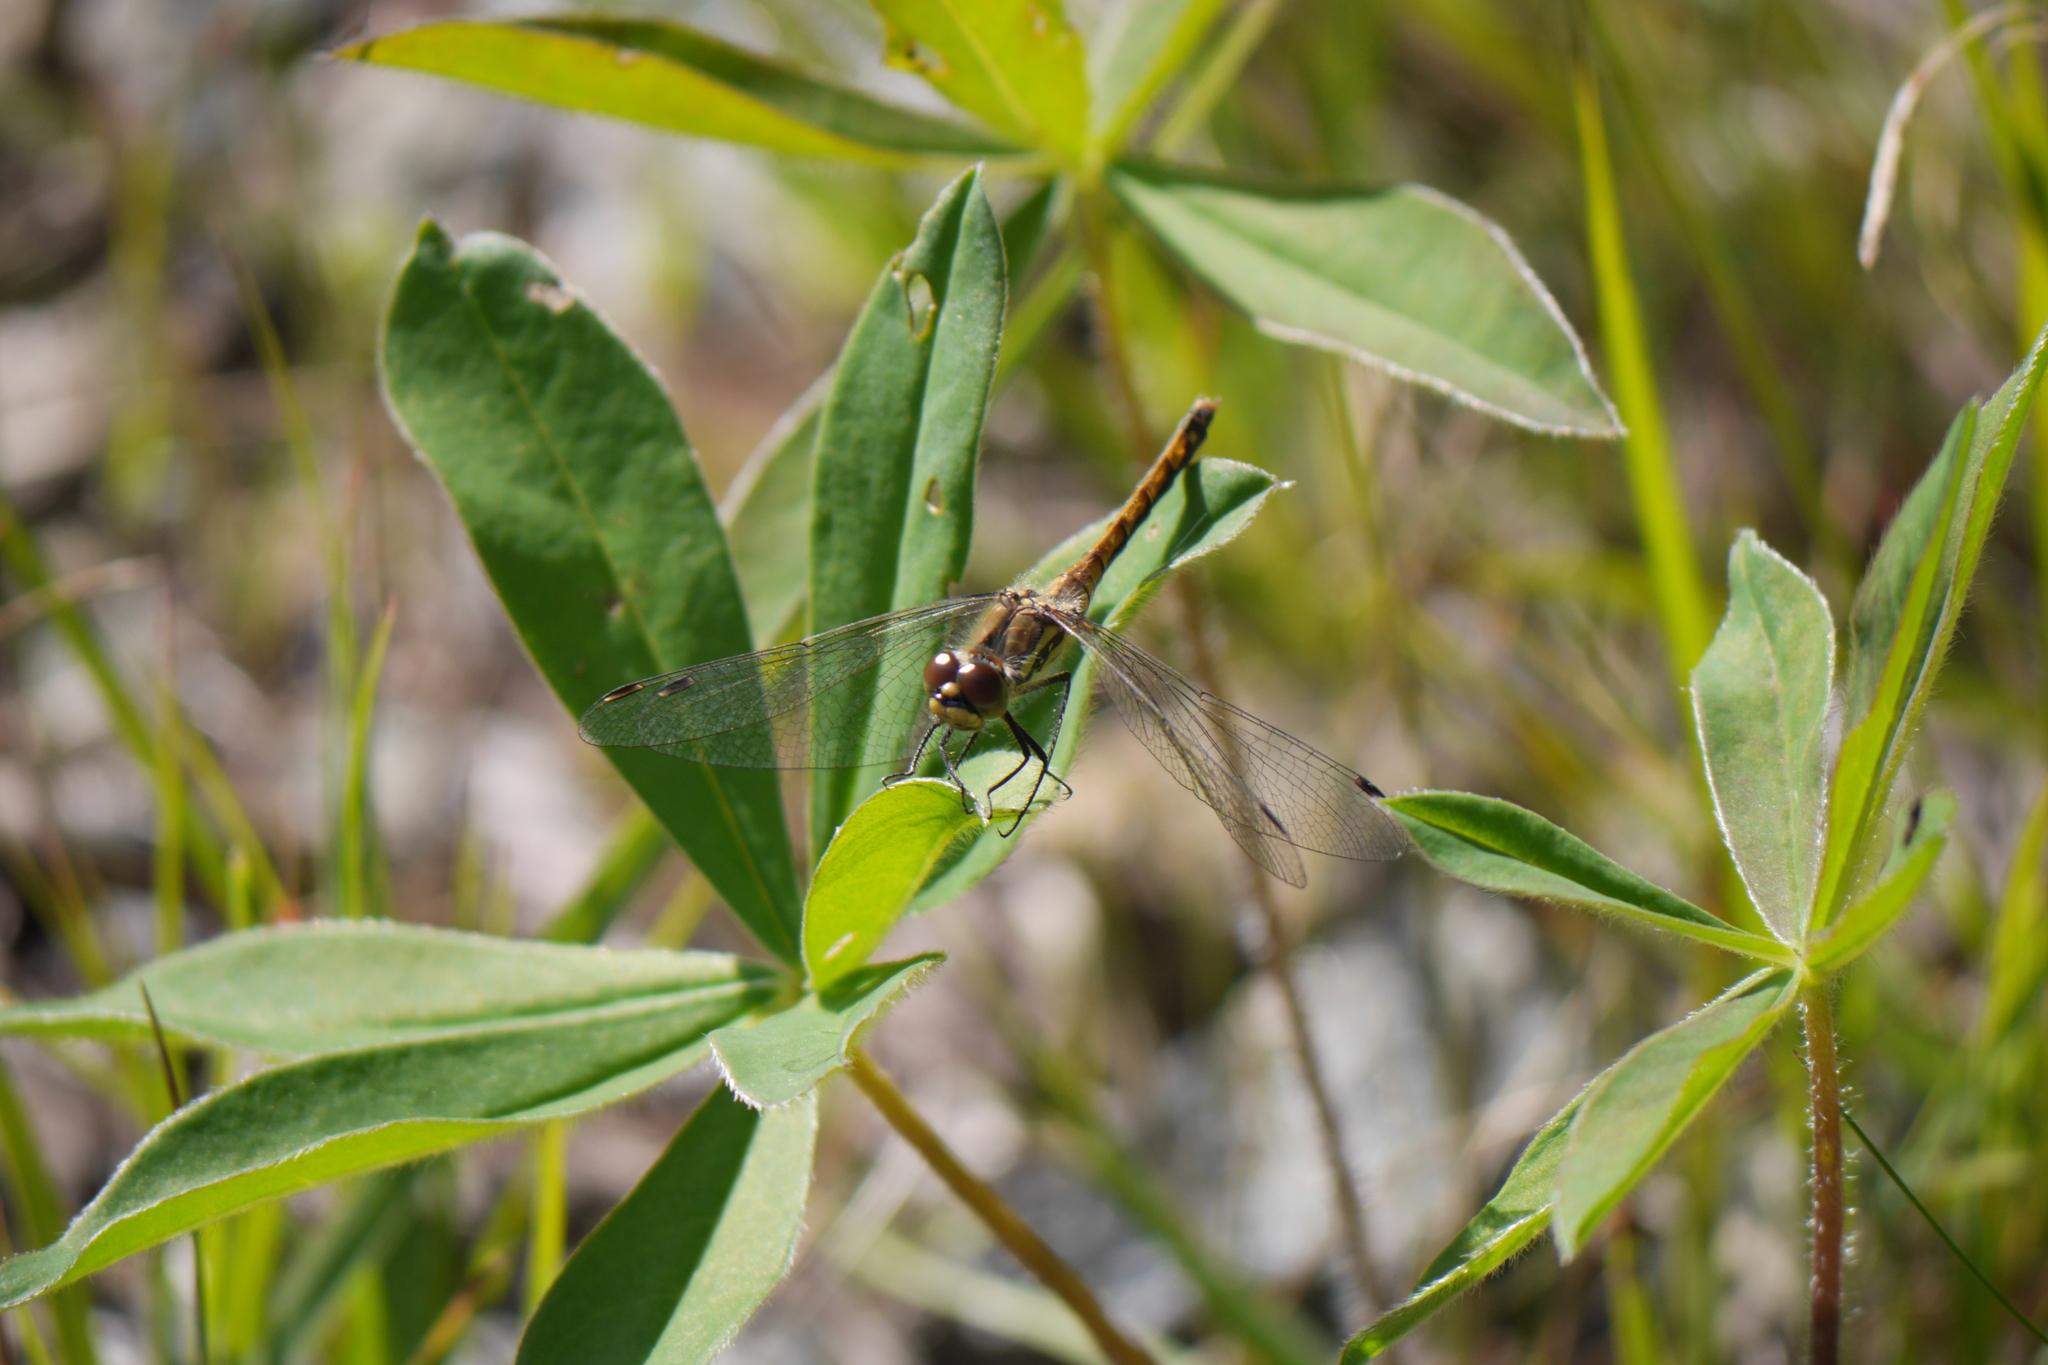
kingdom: Animalia
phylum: Arthropoda
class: Insecta
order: Odonata
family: Libellulidae
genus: Sympetrum
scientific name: Sympetrum danae
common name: Black darter
